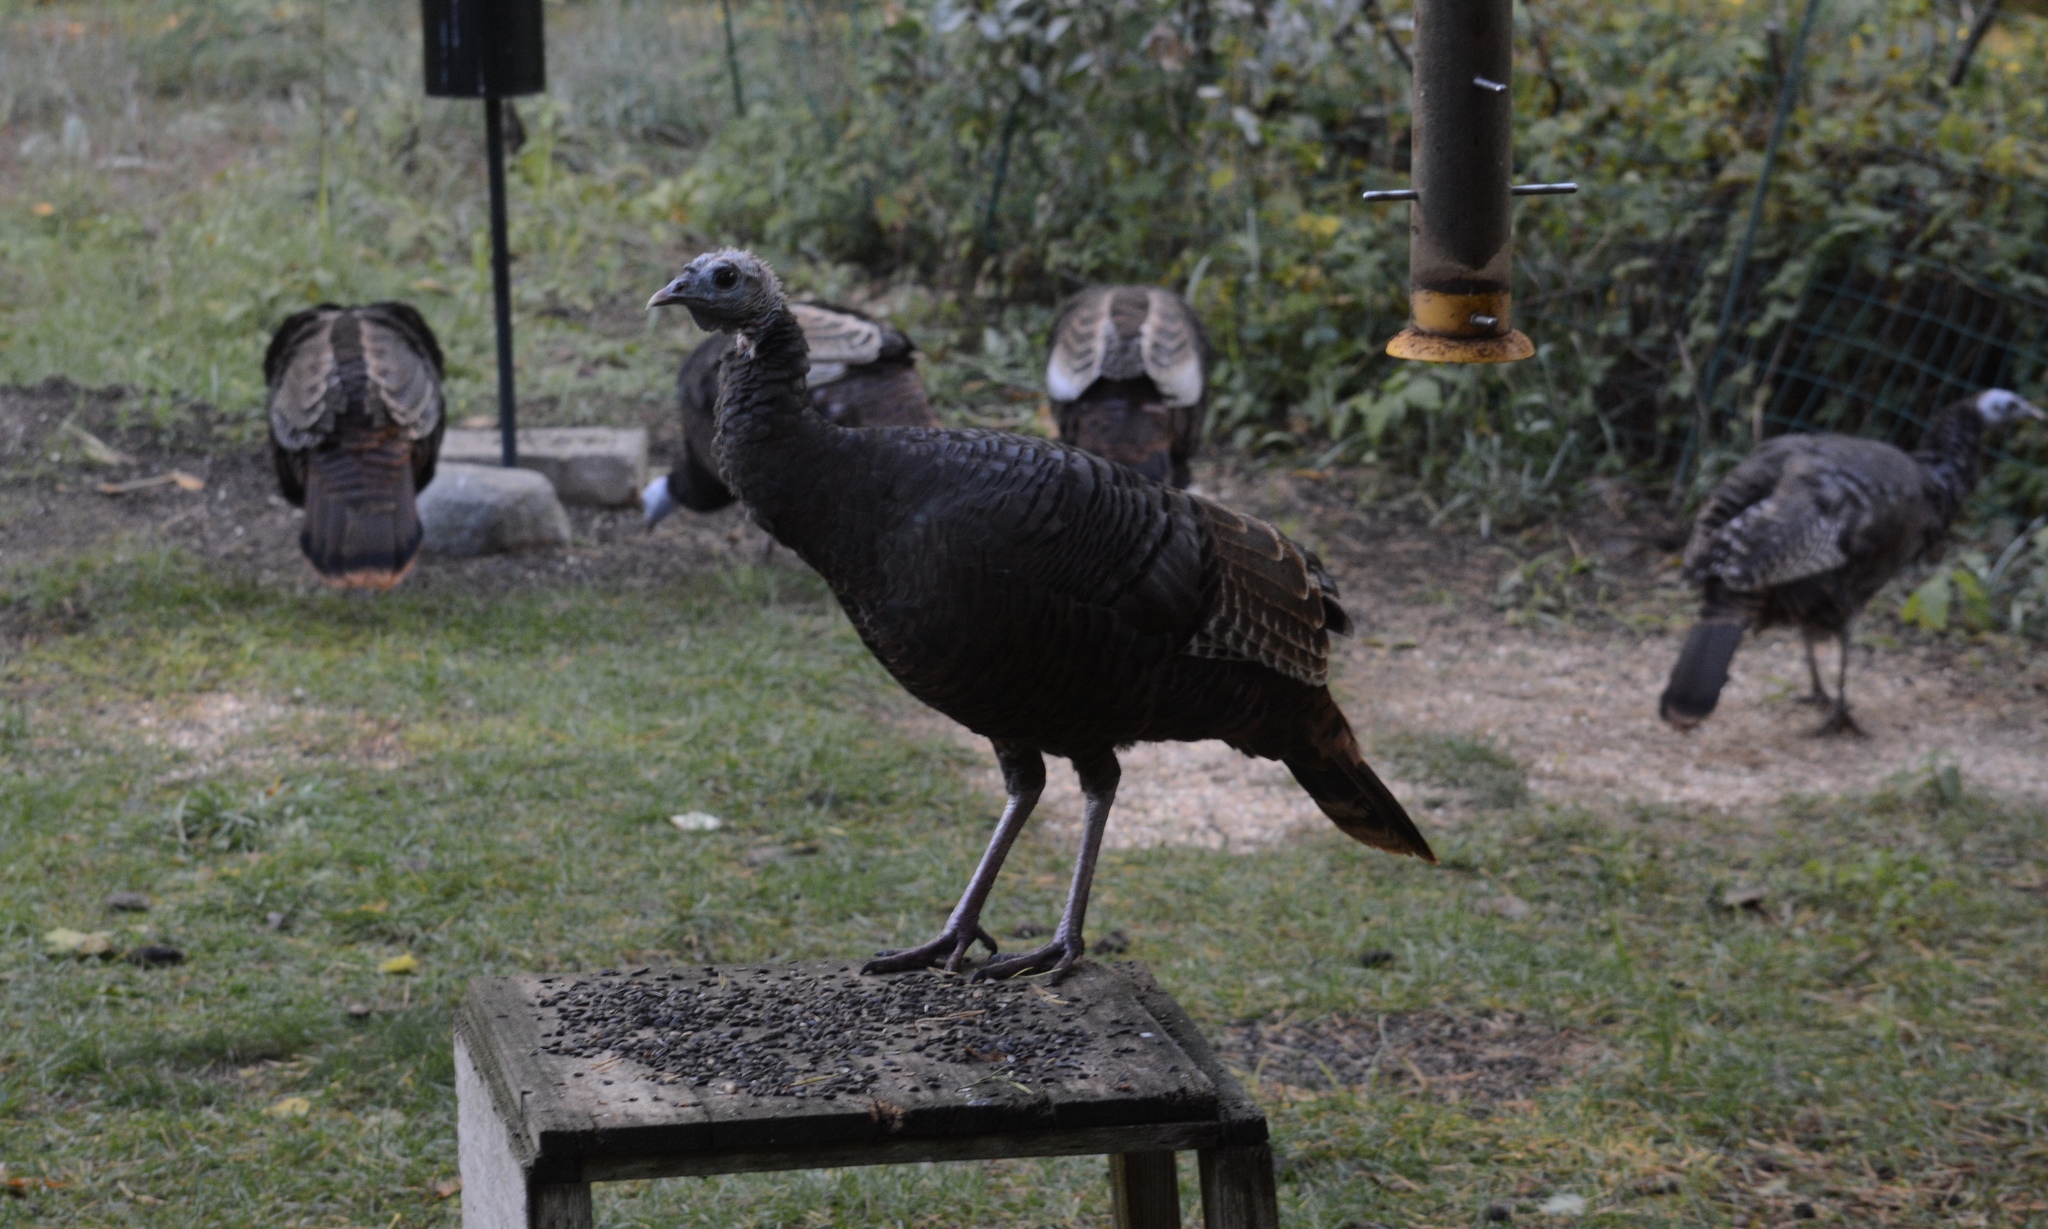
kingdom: Animalia
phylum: Chordata
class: Aves
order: Galliformes
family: Phasianidae
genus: Meleagris
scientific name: Meleagris gallopavo
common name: Wild turkey
